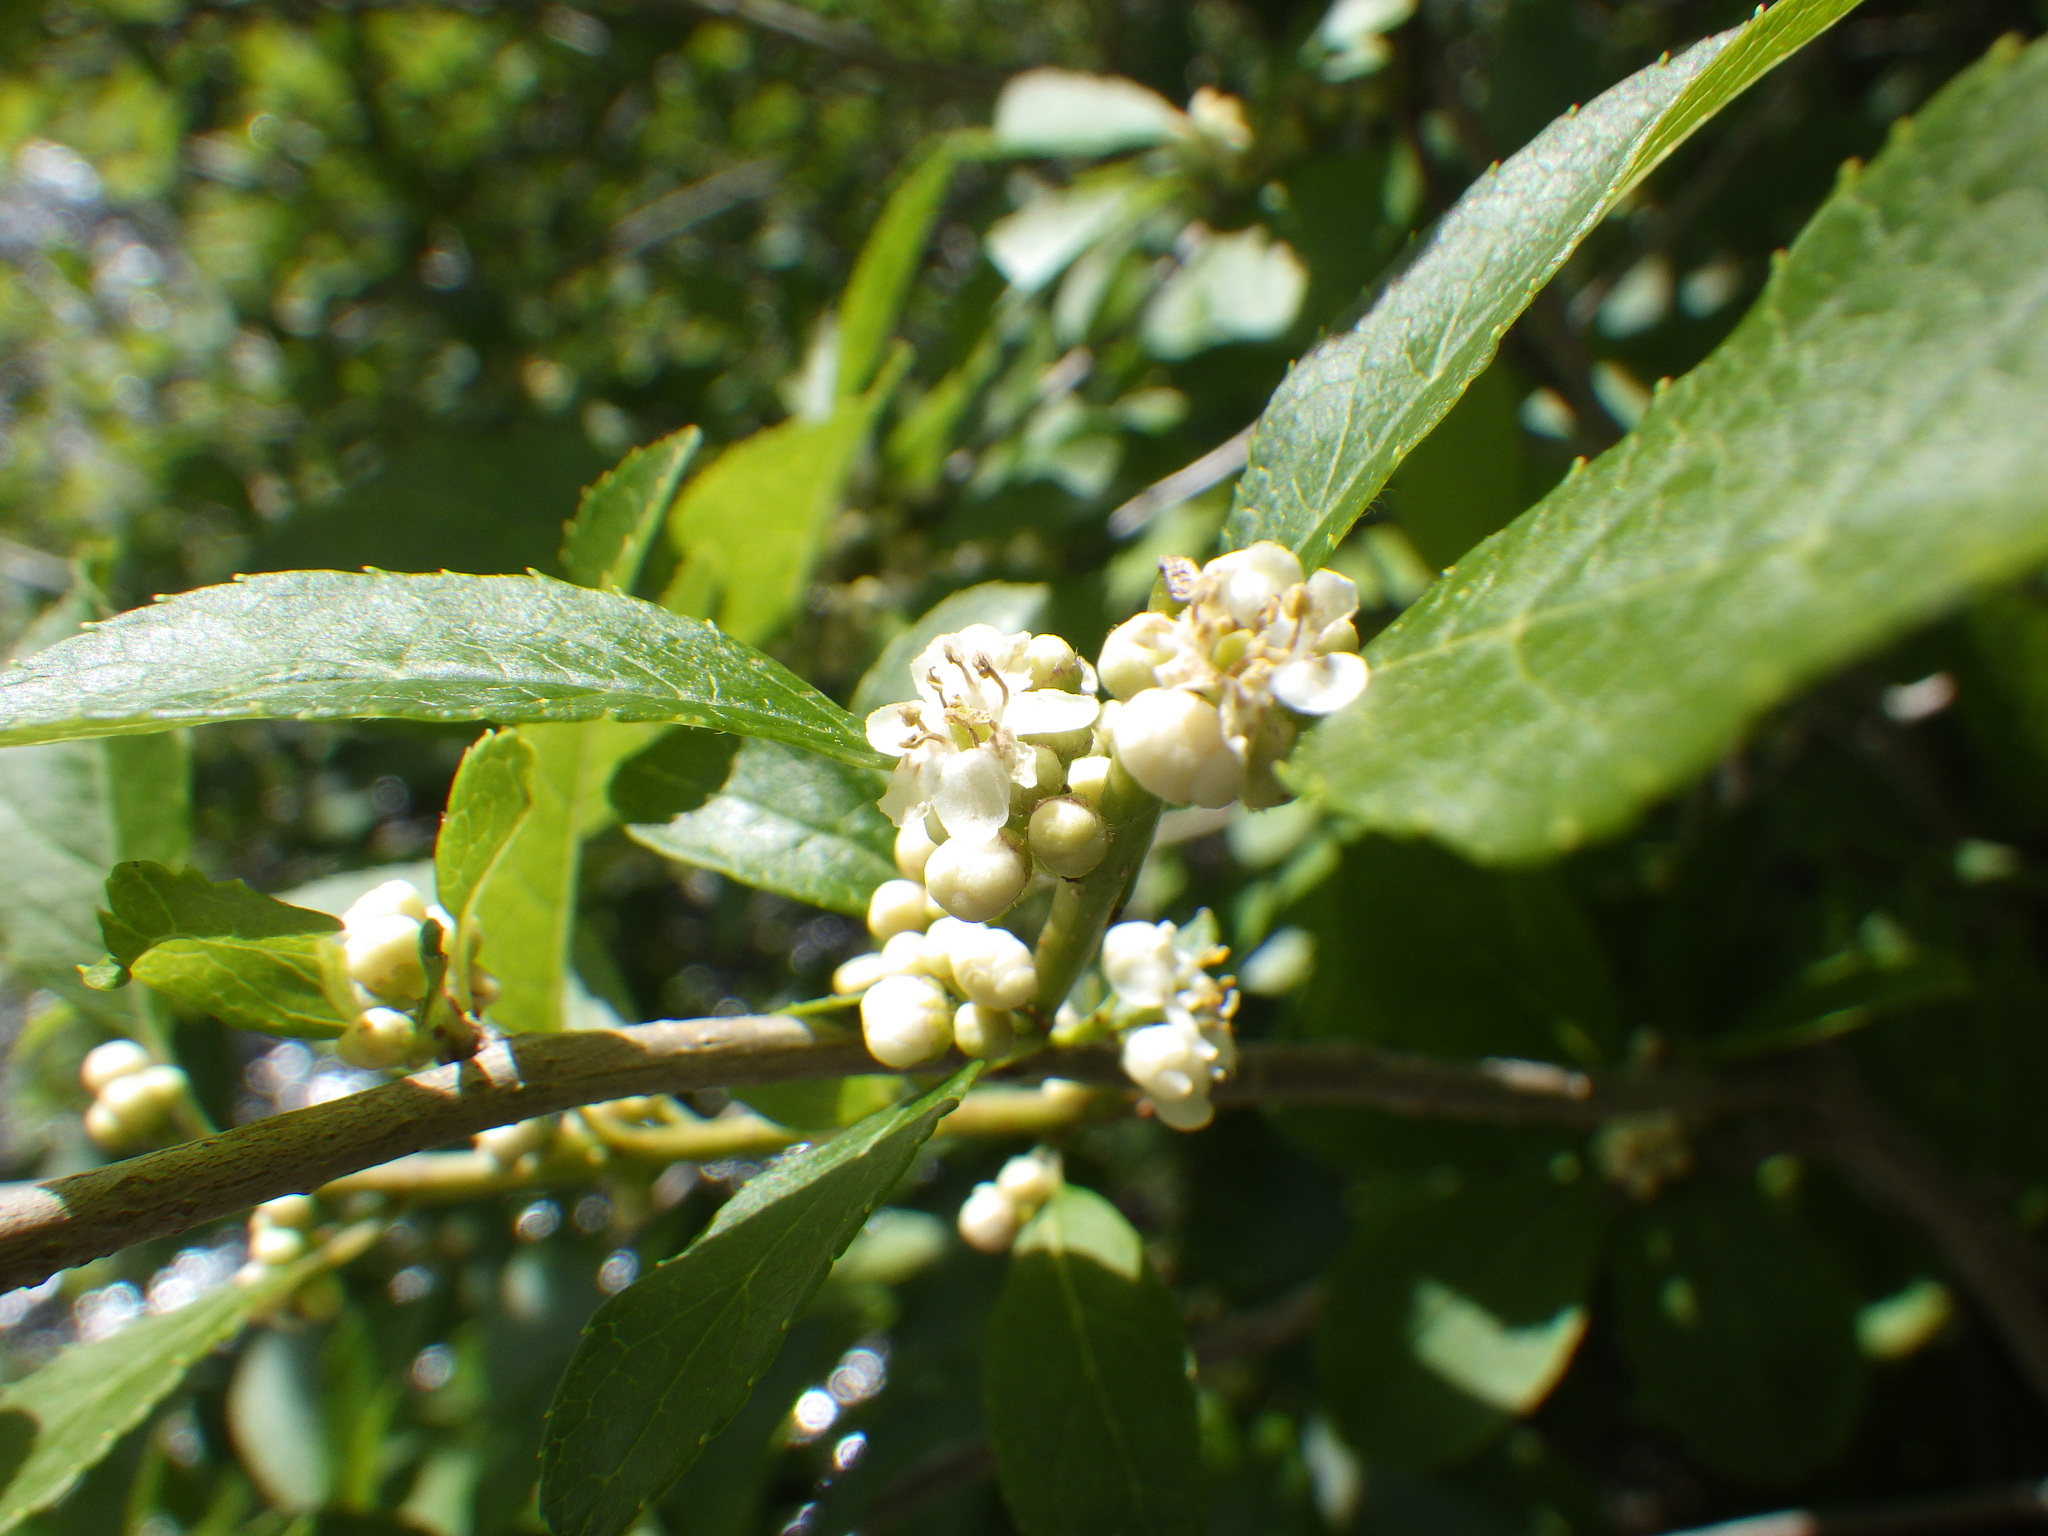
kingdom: Plantae
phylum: Tracheophyta
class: Magnoliopsida
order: Aquifoliales
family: Aquifoliaceae
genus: Ilex
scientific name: Ilex verticillata
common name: Virginia winterberry
